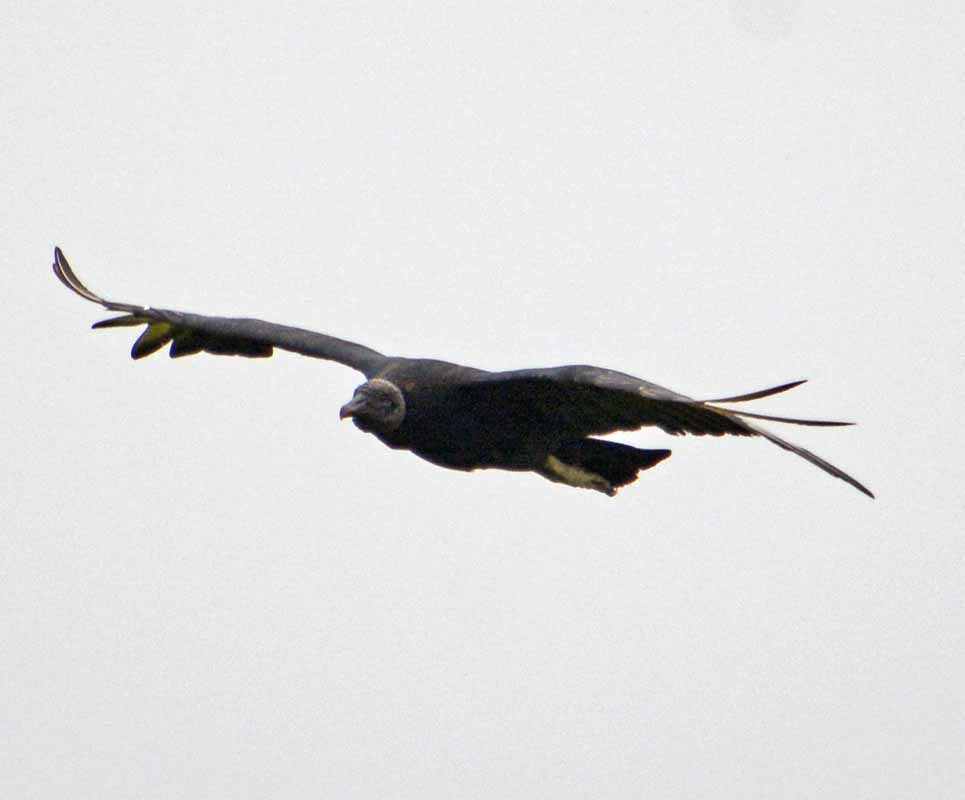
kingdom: Animalia
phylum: Chordata
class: Aves
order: Accipitriformes
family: Cathartidae
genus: Coragyps
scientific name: Coragyps atratus
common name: Black vulture
